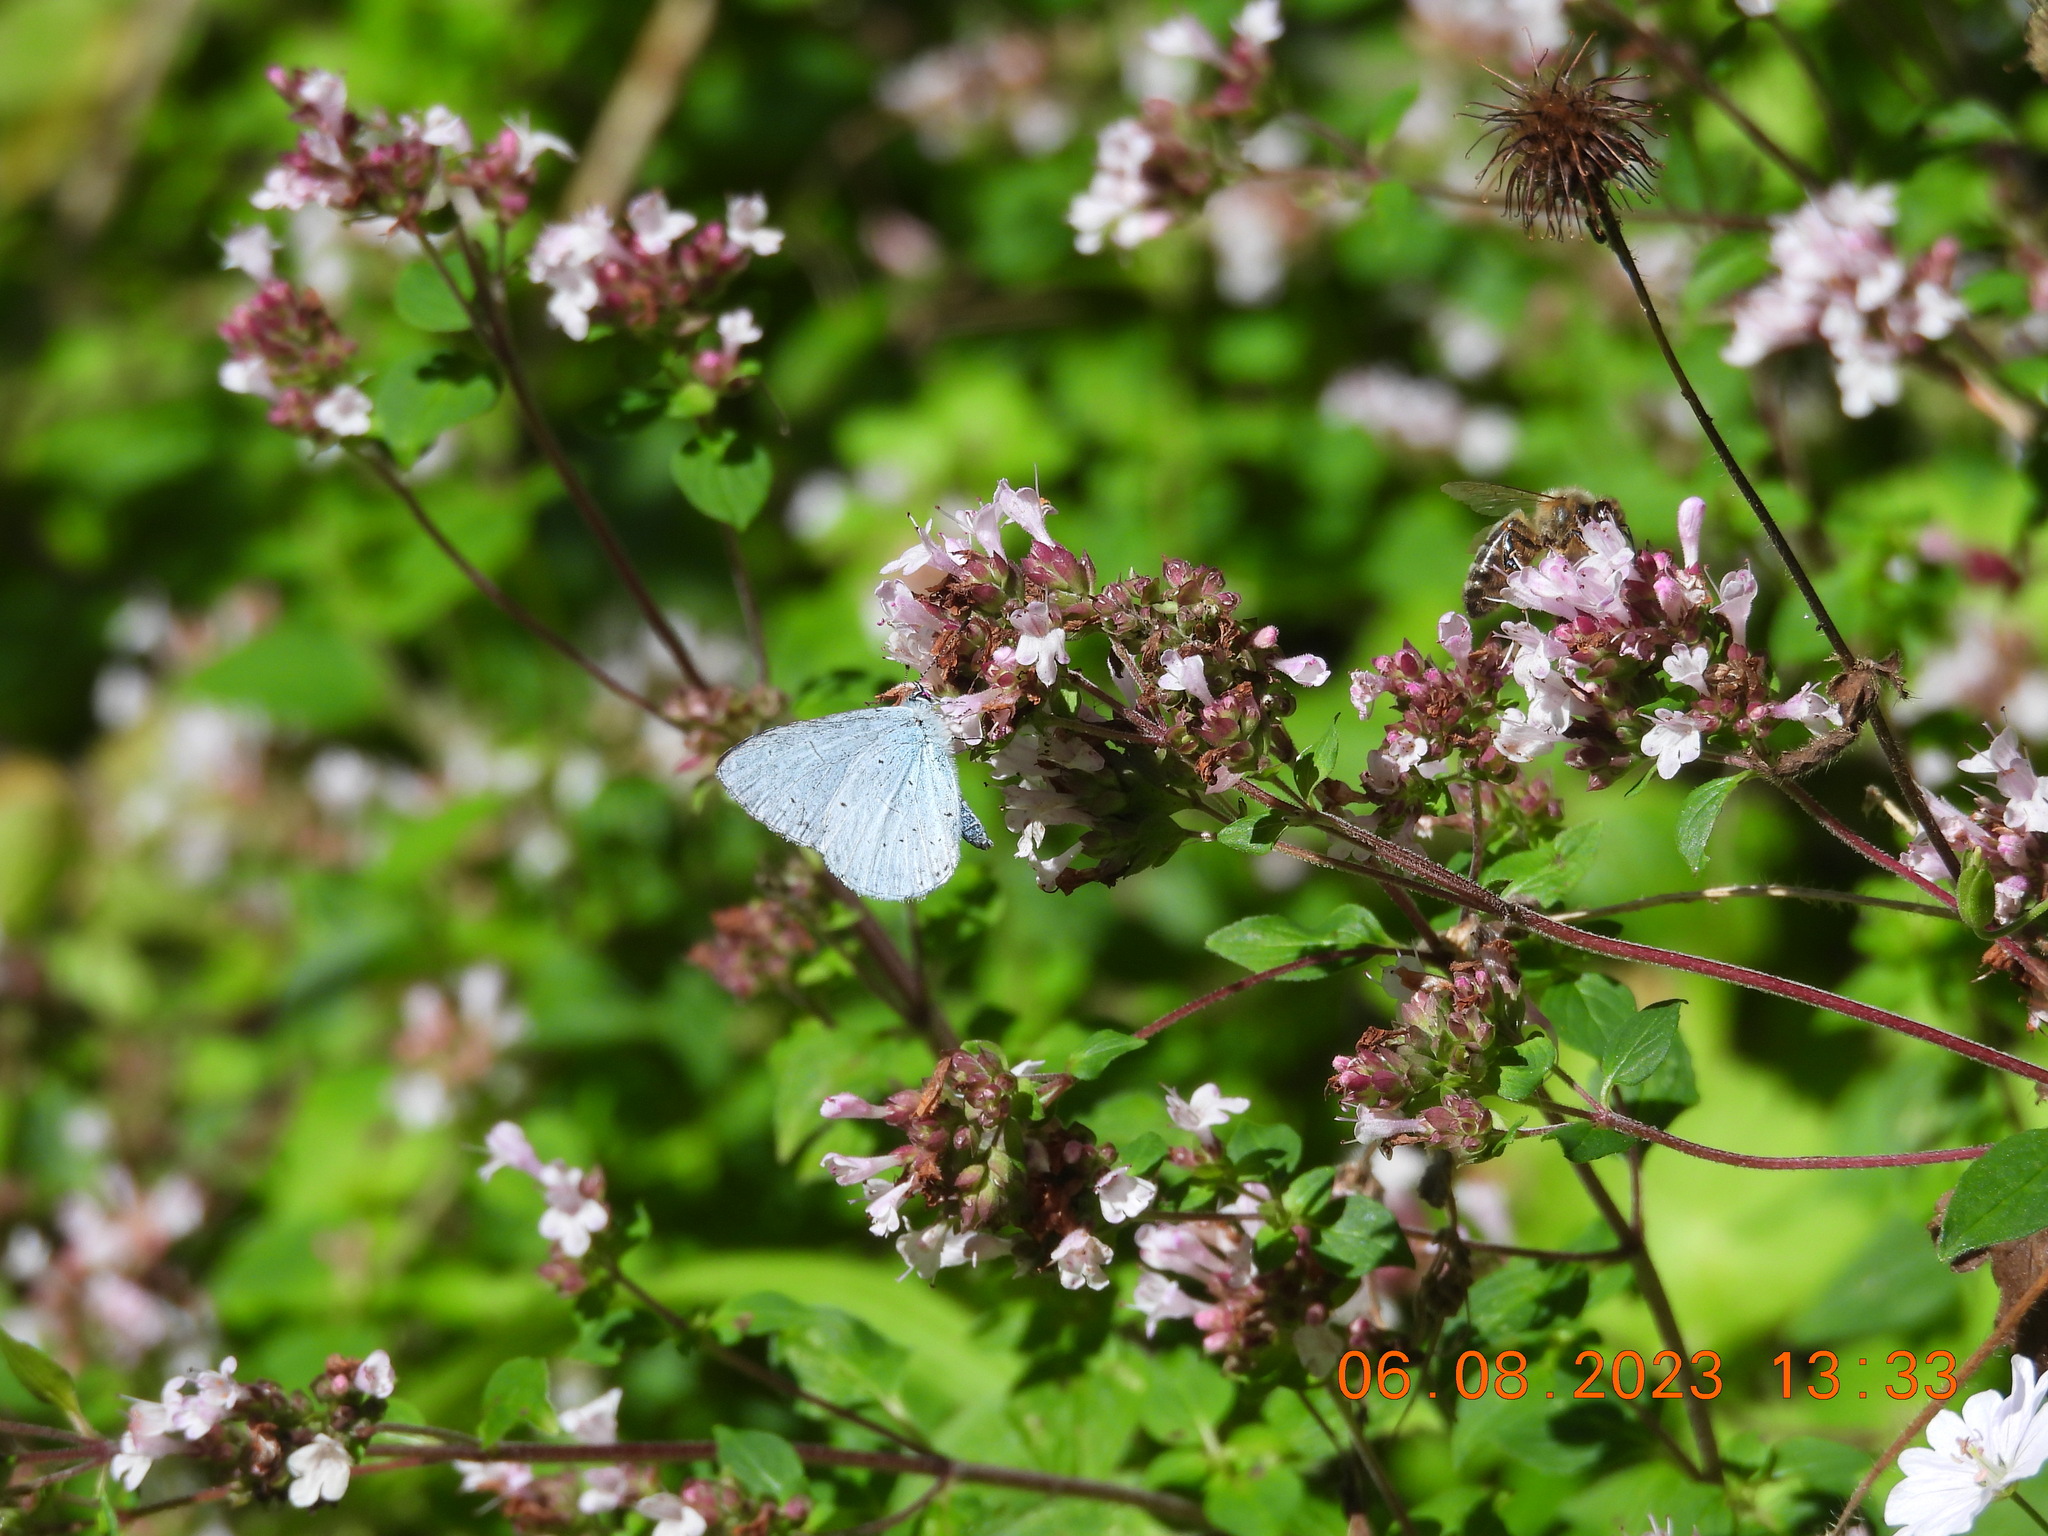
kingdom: Animalia
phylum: Arthropoda
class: Insecta
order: Lepidoptera
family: Lycaenidae
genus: Celastrina
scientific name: Celastrina argiolus
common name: Holly blue
